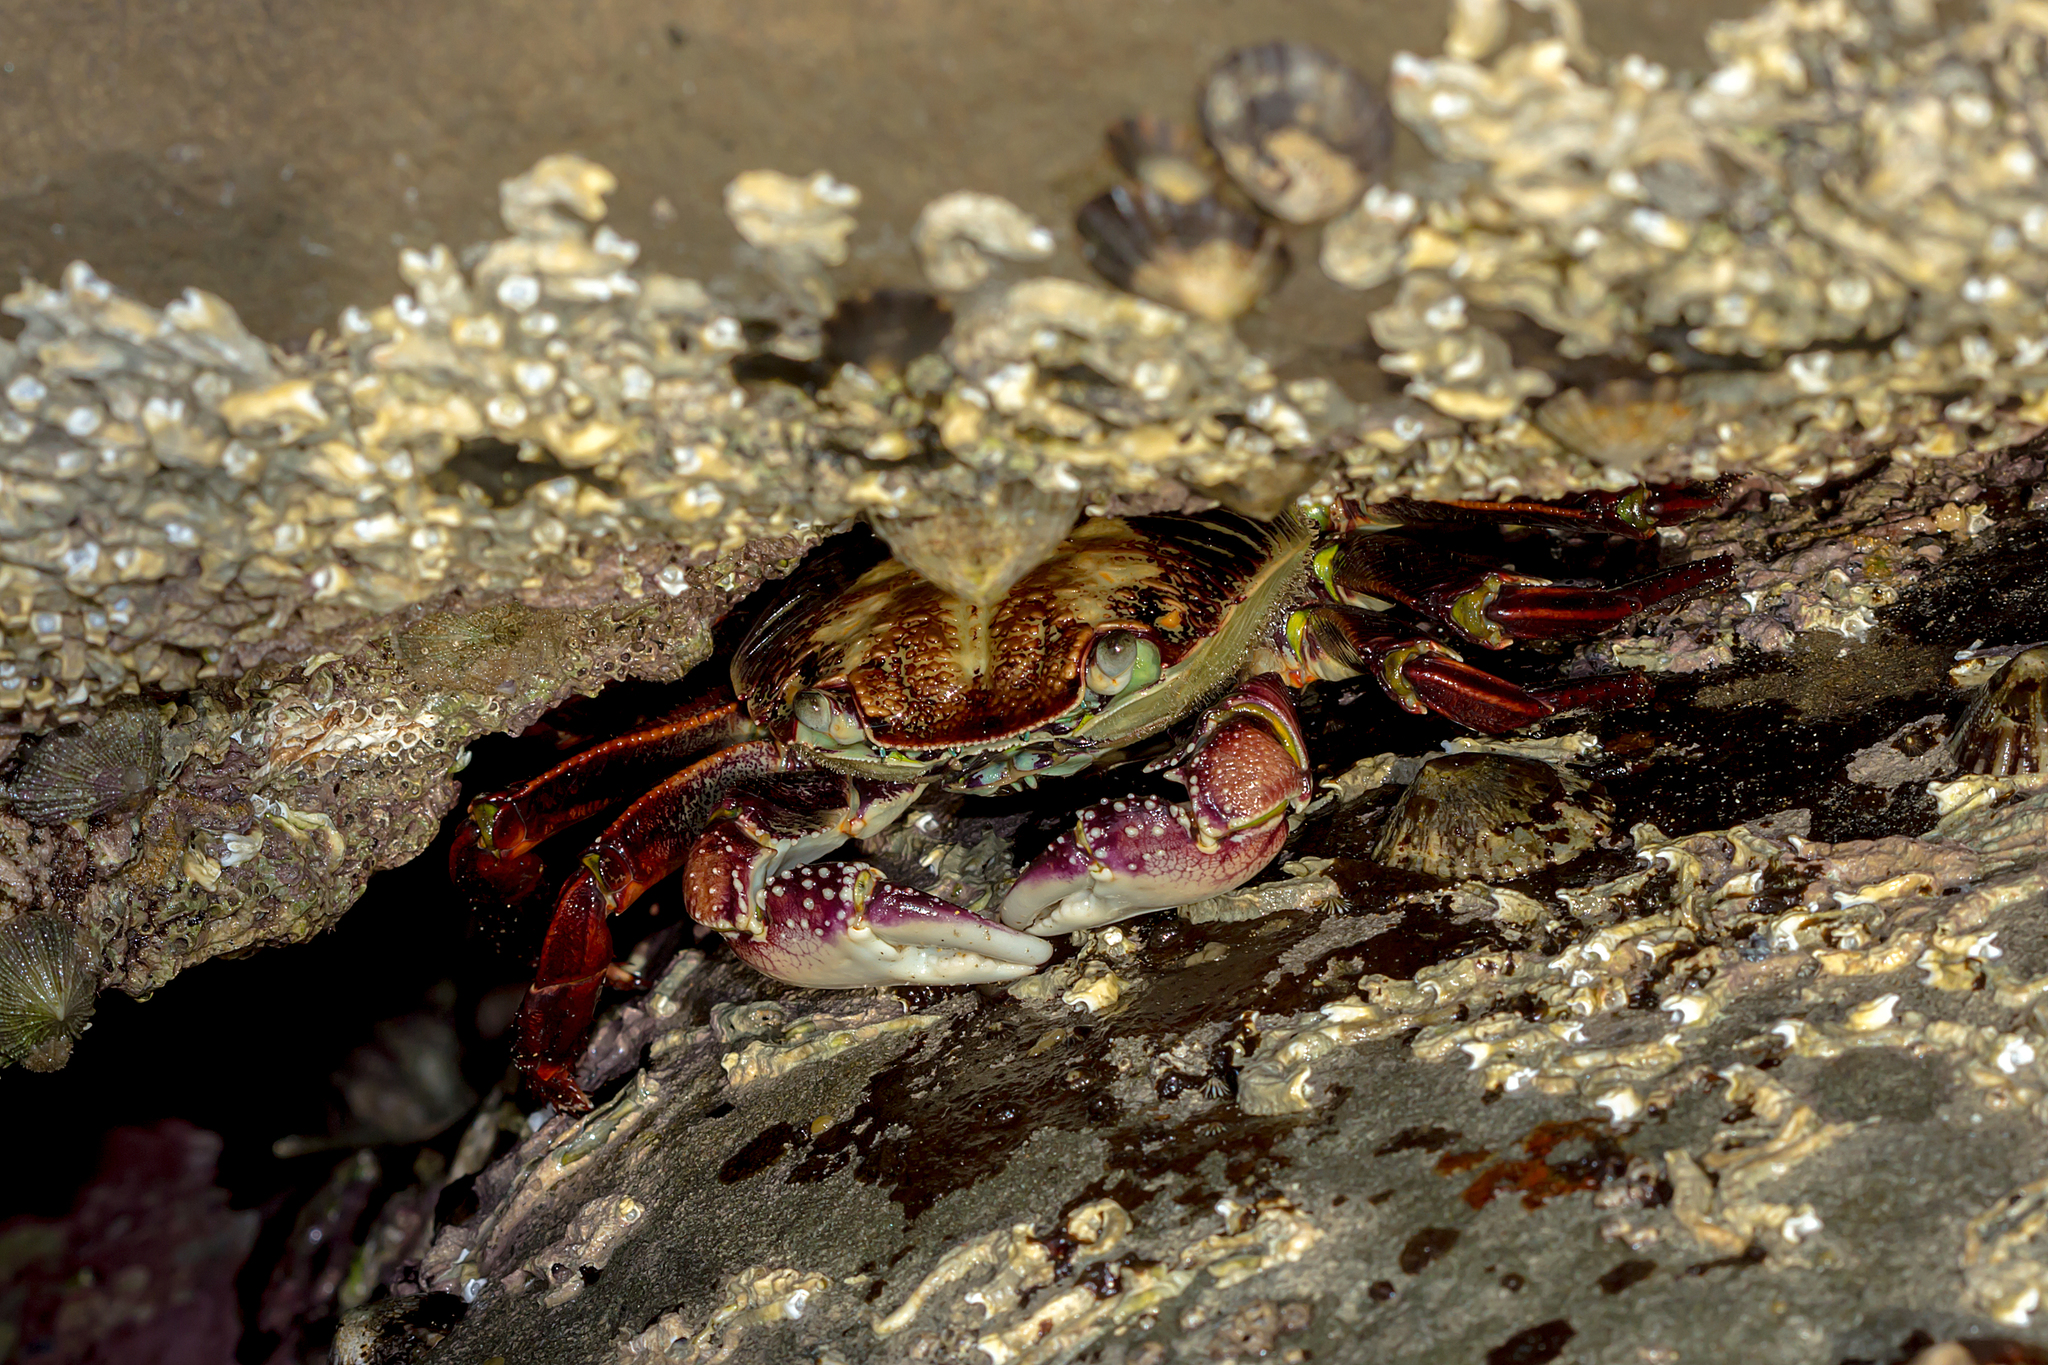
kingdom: Animalia
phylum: Arthropoda
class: Malacostraca
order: Decapoda
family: Grapsidae
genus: Leptograpsus
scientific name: Leptograpsus variegatus
